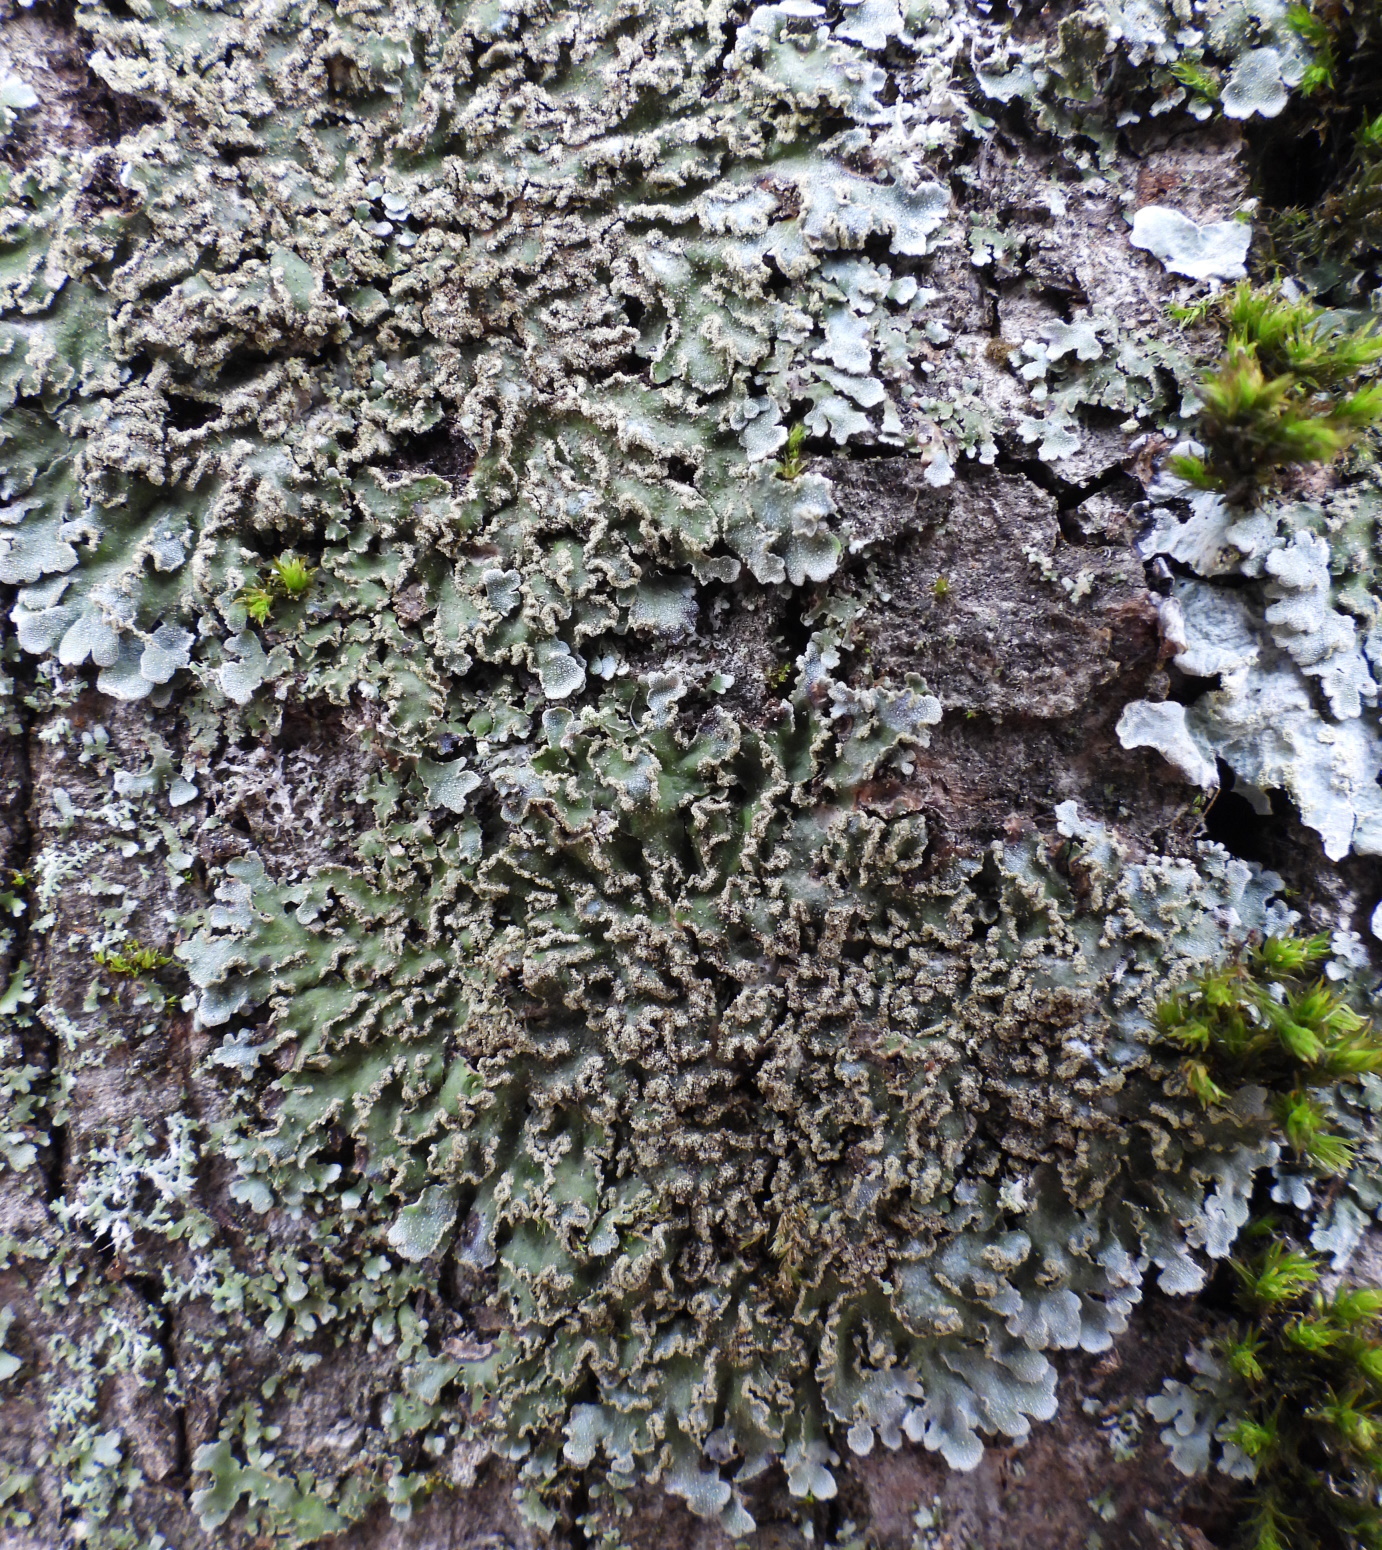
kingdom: Fungi
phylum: Ascomycota
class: Lecanoromycetes
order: Caliciales
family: Physciaceae
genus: Physconia
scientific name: Physconia enteroxantha
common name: Yellow-edged frost lichen
